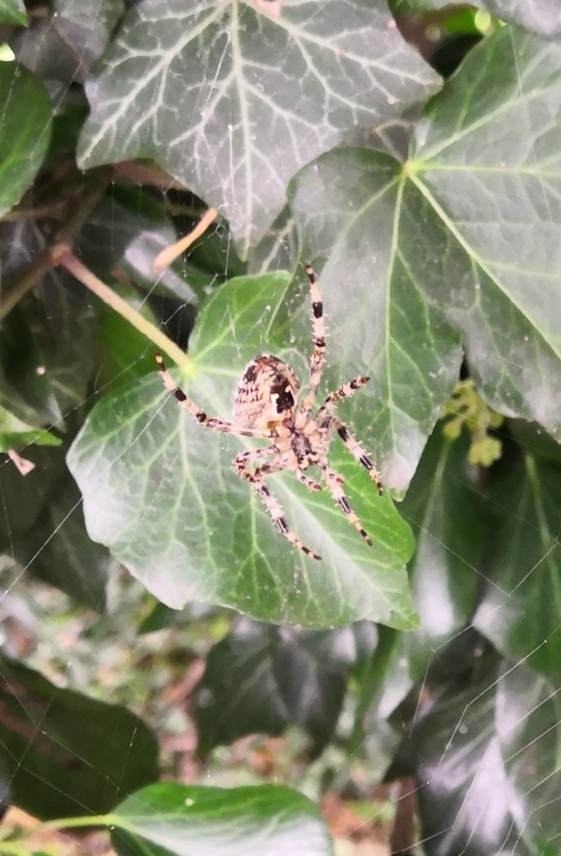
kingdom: Animalia
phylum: Arthropoda
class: Arachnida
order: Araneae
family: Araneidae
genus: Araneus
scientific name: Araneus diadematus
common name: Cross orbweaver
